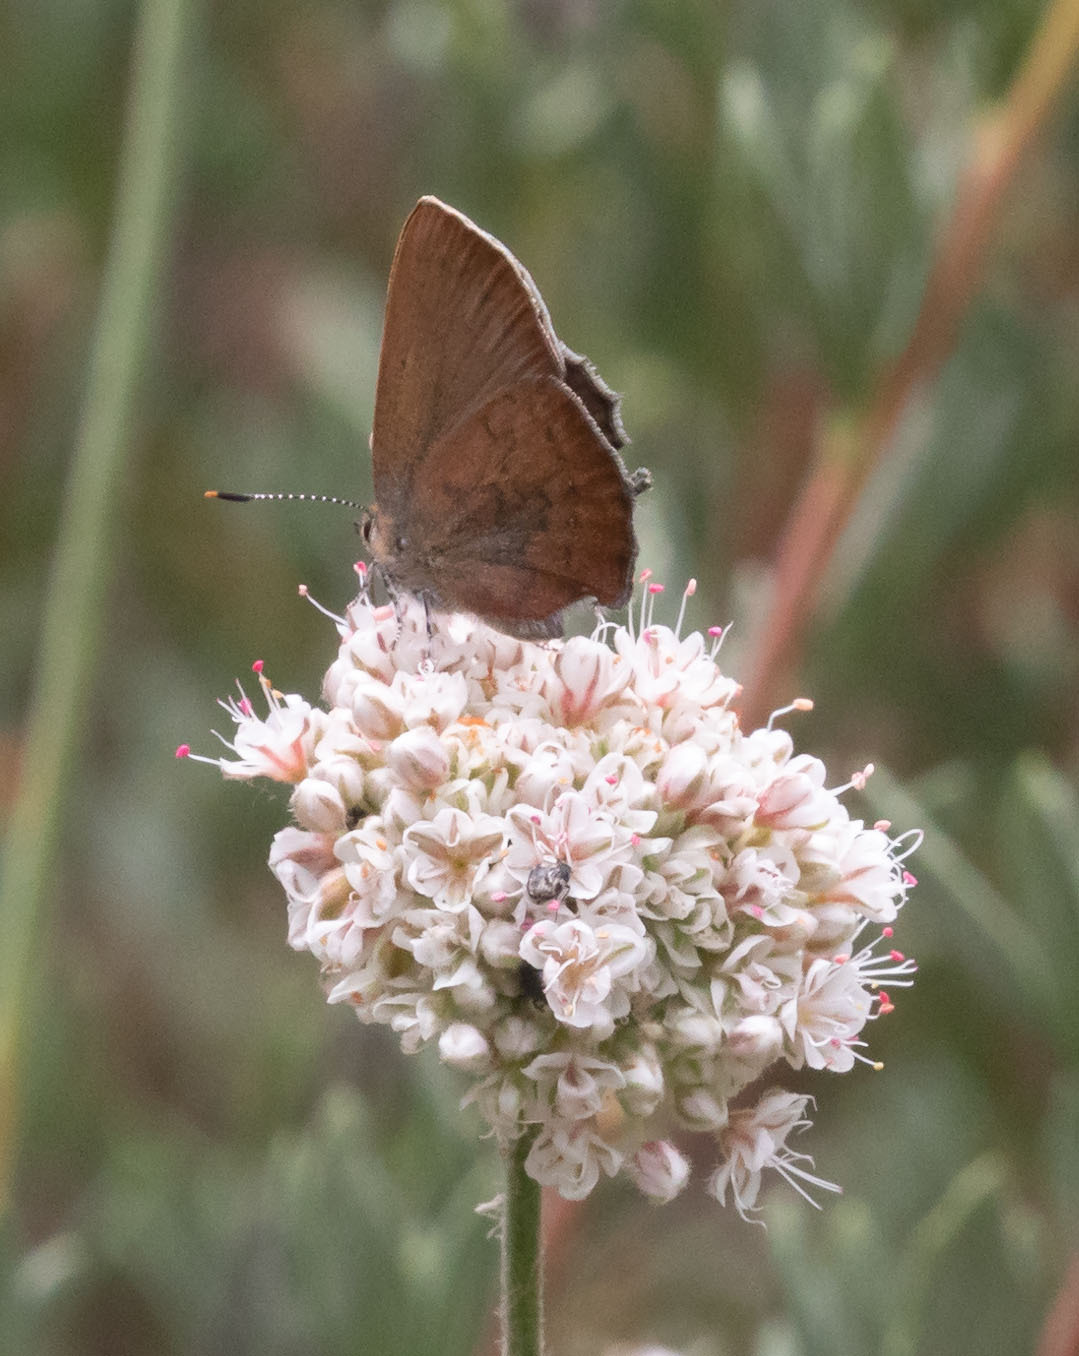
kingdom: Animalia
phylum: Arthropoda
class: Insecta
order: Lepidoptera
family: Lycaenidae
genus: Incisalia
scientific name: Incisalia irioides
